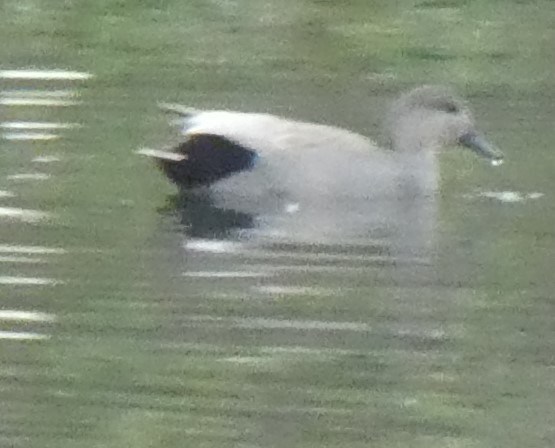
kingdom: Animalia
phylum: Chordata
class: Aves
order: Anseriformes
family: Anatidae
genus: Mareca
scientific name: Mareca strepera
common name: Gadwall
